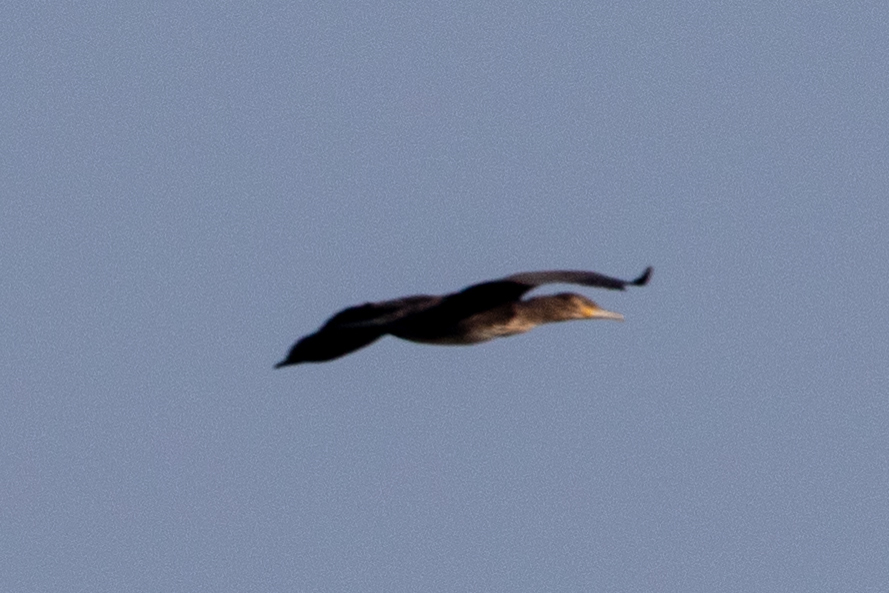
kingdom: Animalia
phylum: Chordata
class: Aves
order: Suliformes
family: Phalacrocoracidae
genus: Phalacrocorax
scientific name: Phalacrocorax carbo
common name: Great cormorant
